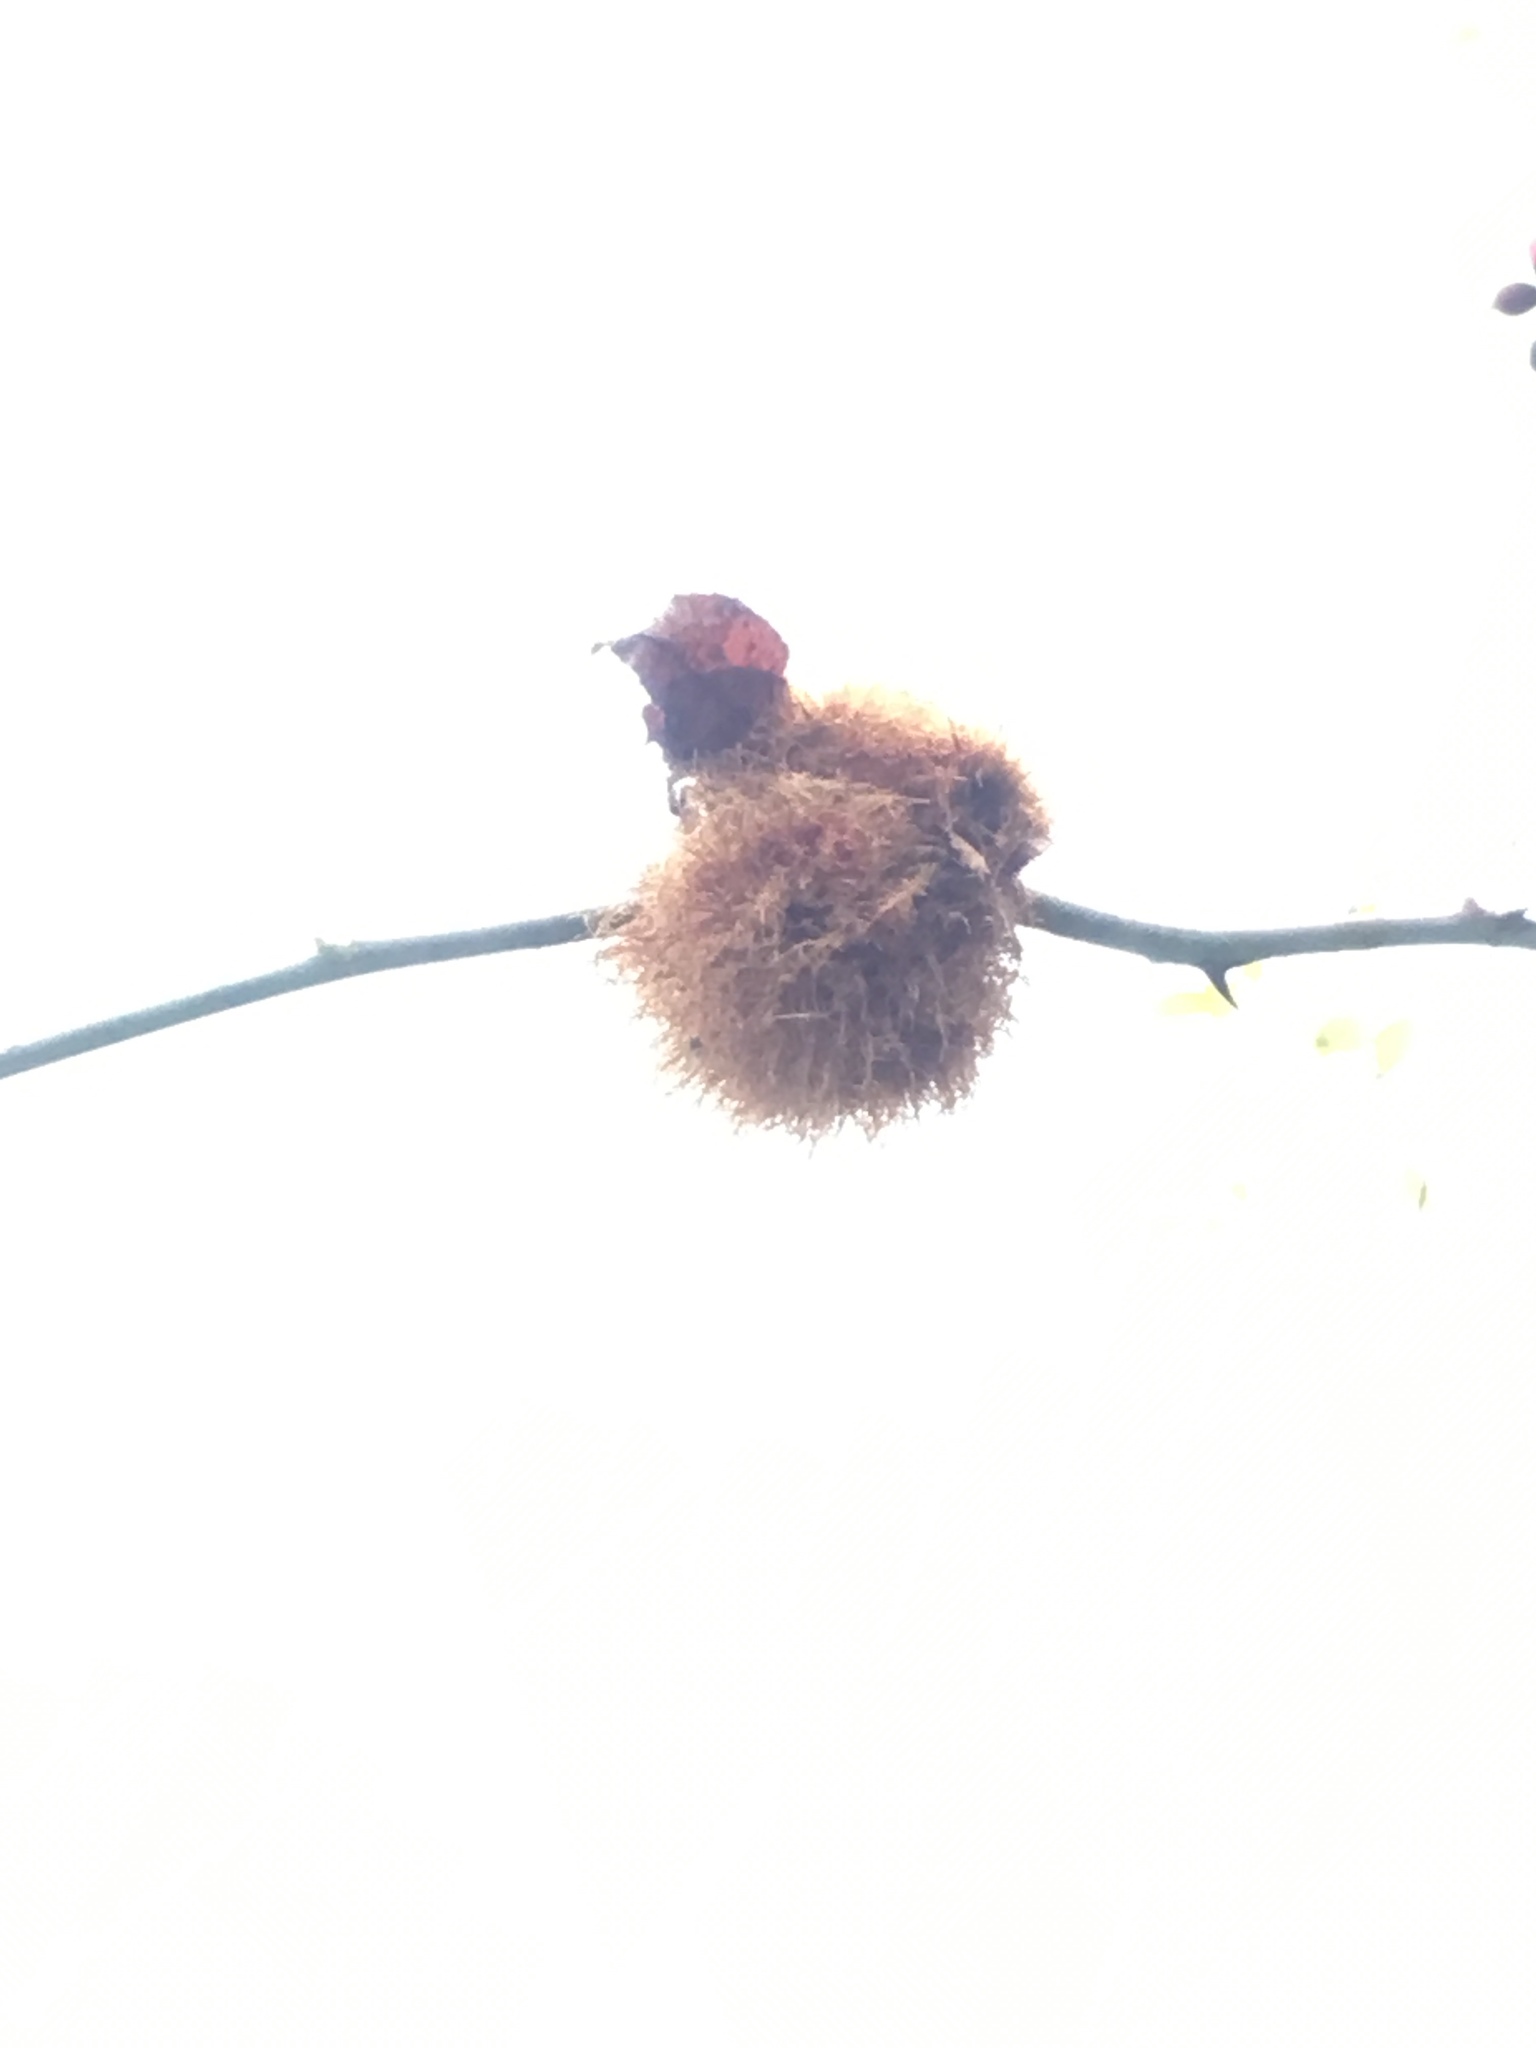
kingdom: Animalia
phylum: Arthropoda
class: Insecta
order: Hymenoptera
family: Cynipidae
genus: Diplolepis
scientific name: Diplolepis rosae
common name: Bedeguar gall
